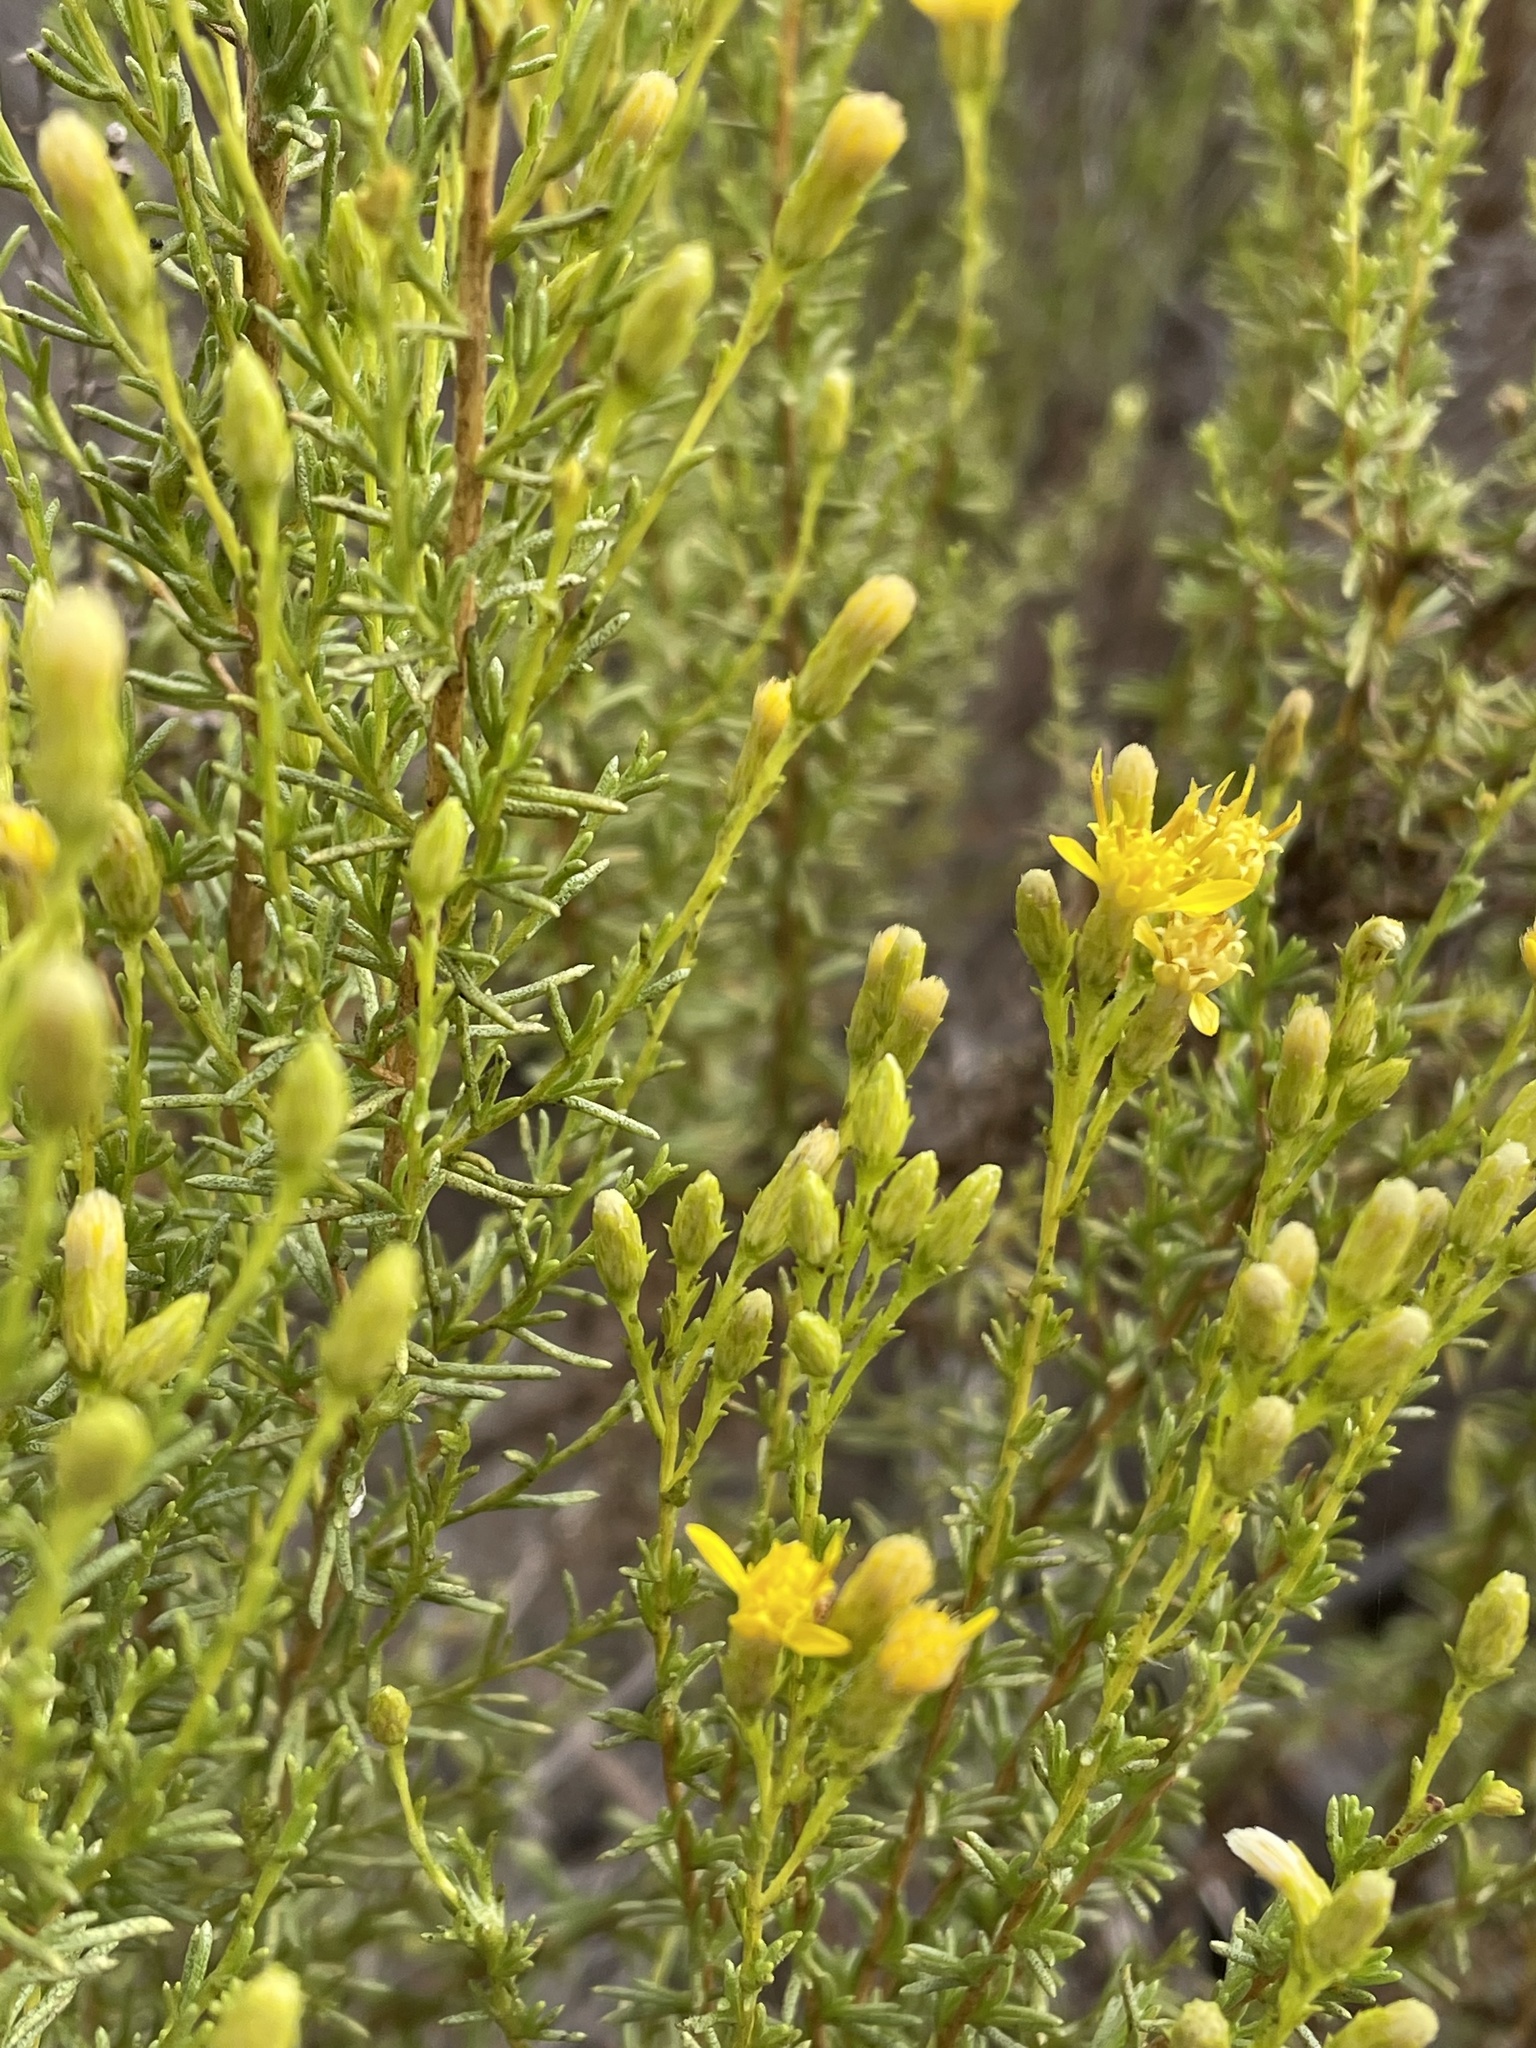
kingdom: Plantae
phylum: Tracheophyta
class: Magnoliopsida
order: Asterales
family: Asteraceae
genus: Ericameria
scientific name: Ericameria ericoides
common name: California goldenbush
